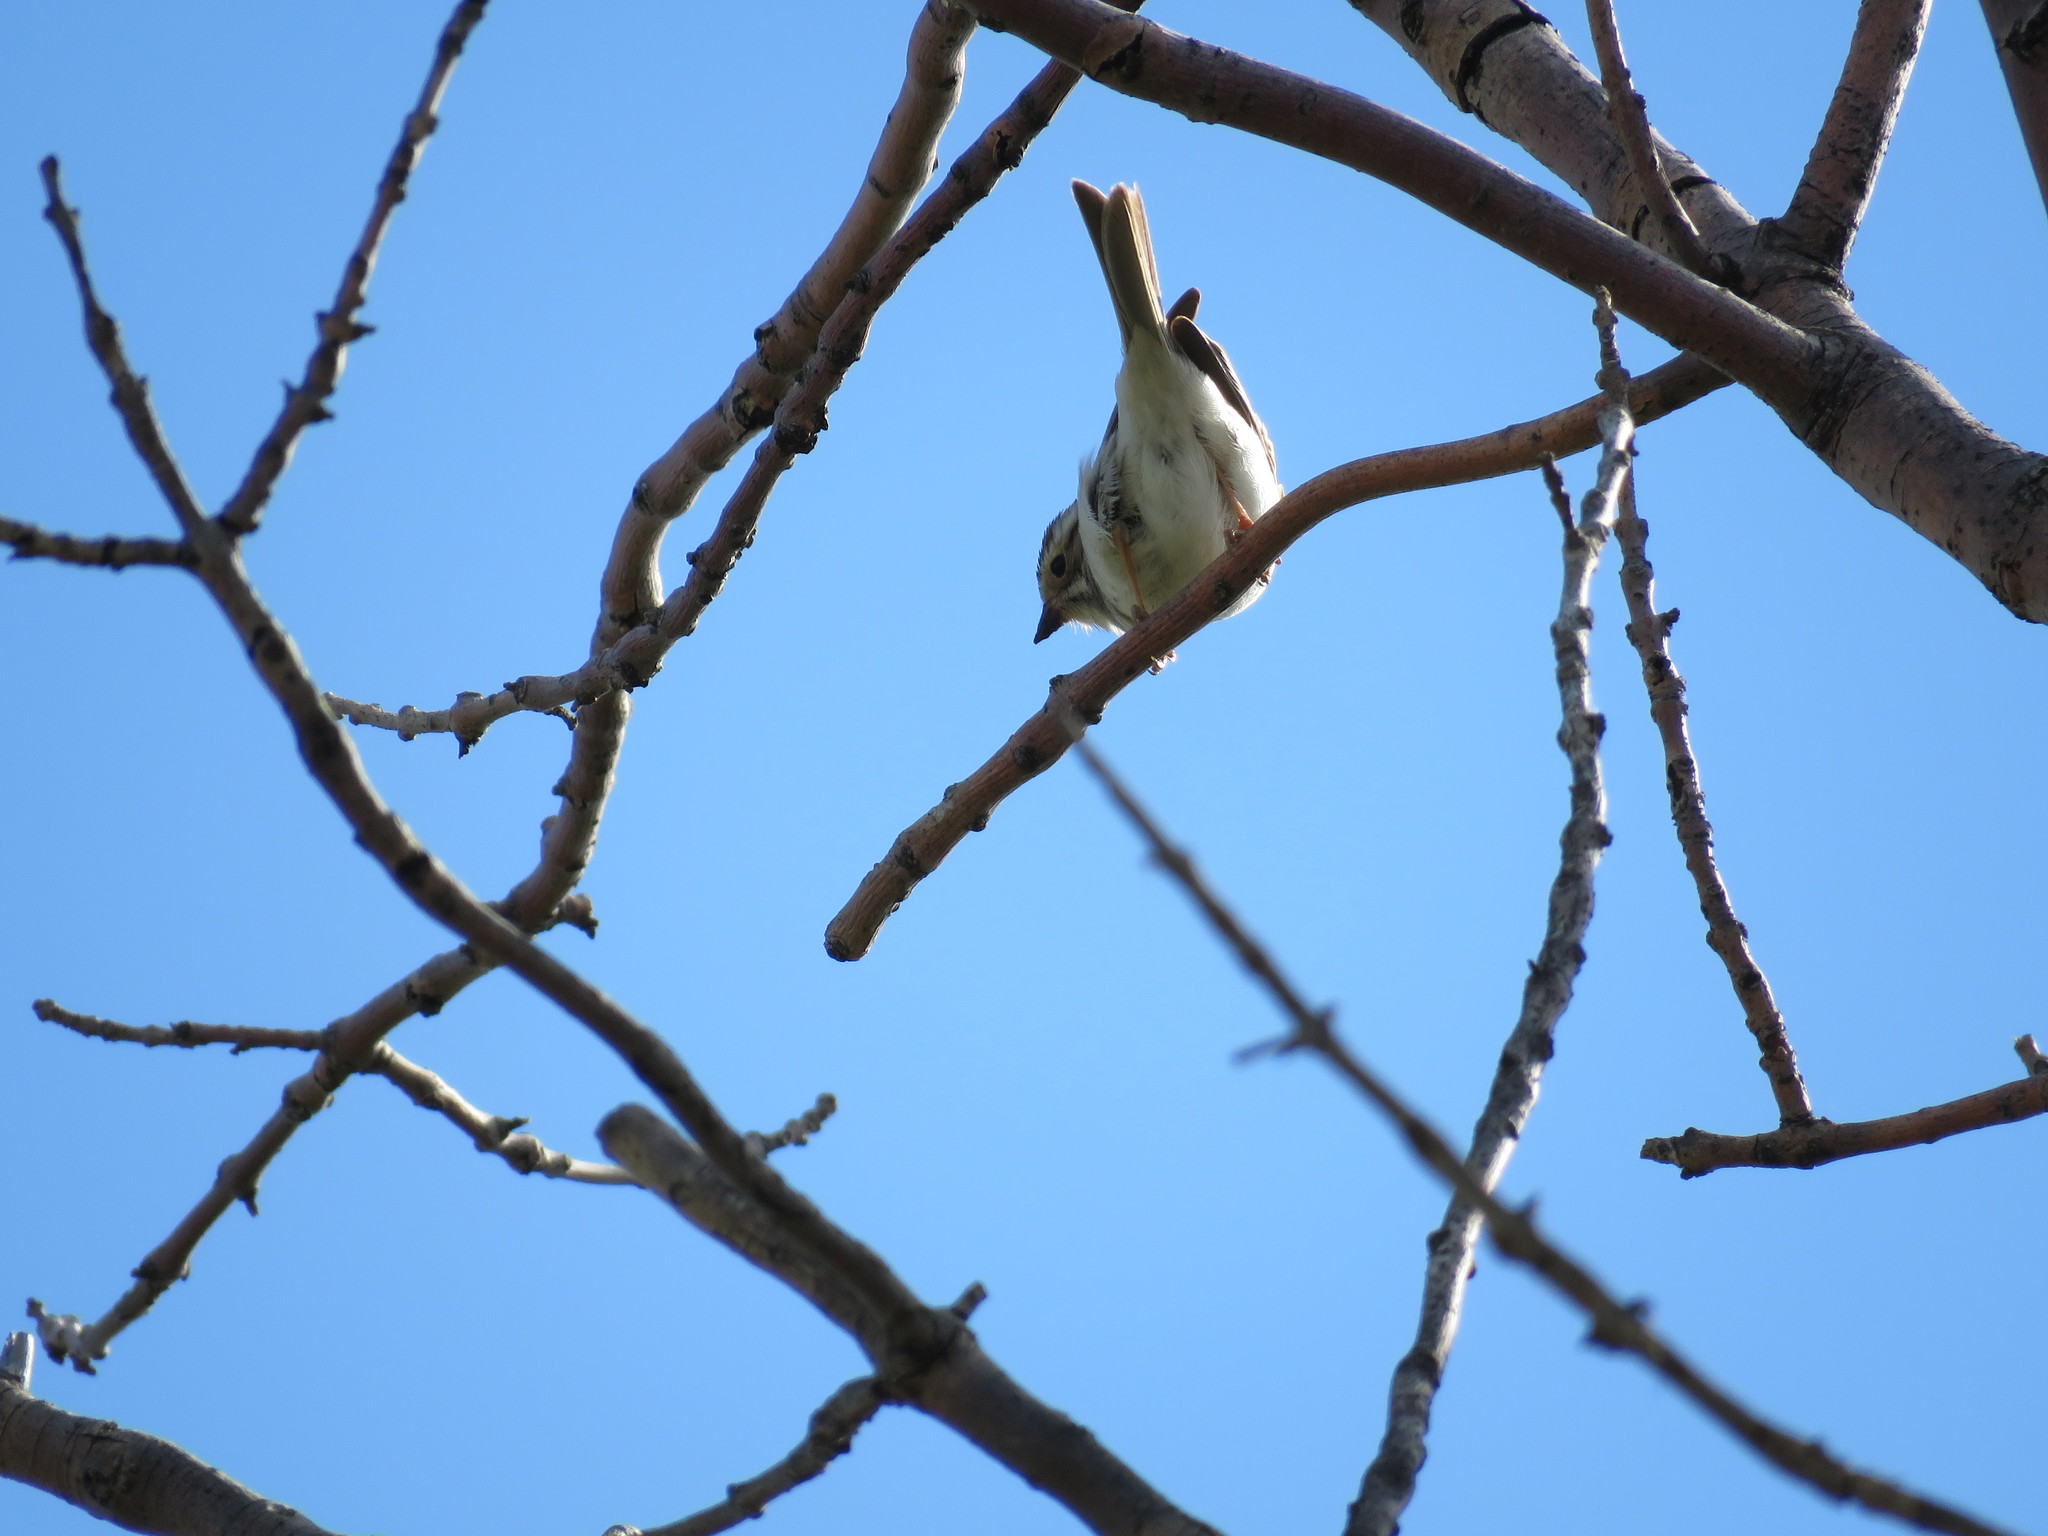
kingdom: Animalia
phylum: Chordata
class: Aves
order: Passeriformes
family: Passerellidae
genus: Spizella
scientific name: Spizella pallida
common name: Clay-colored sparrow
